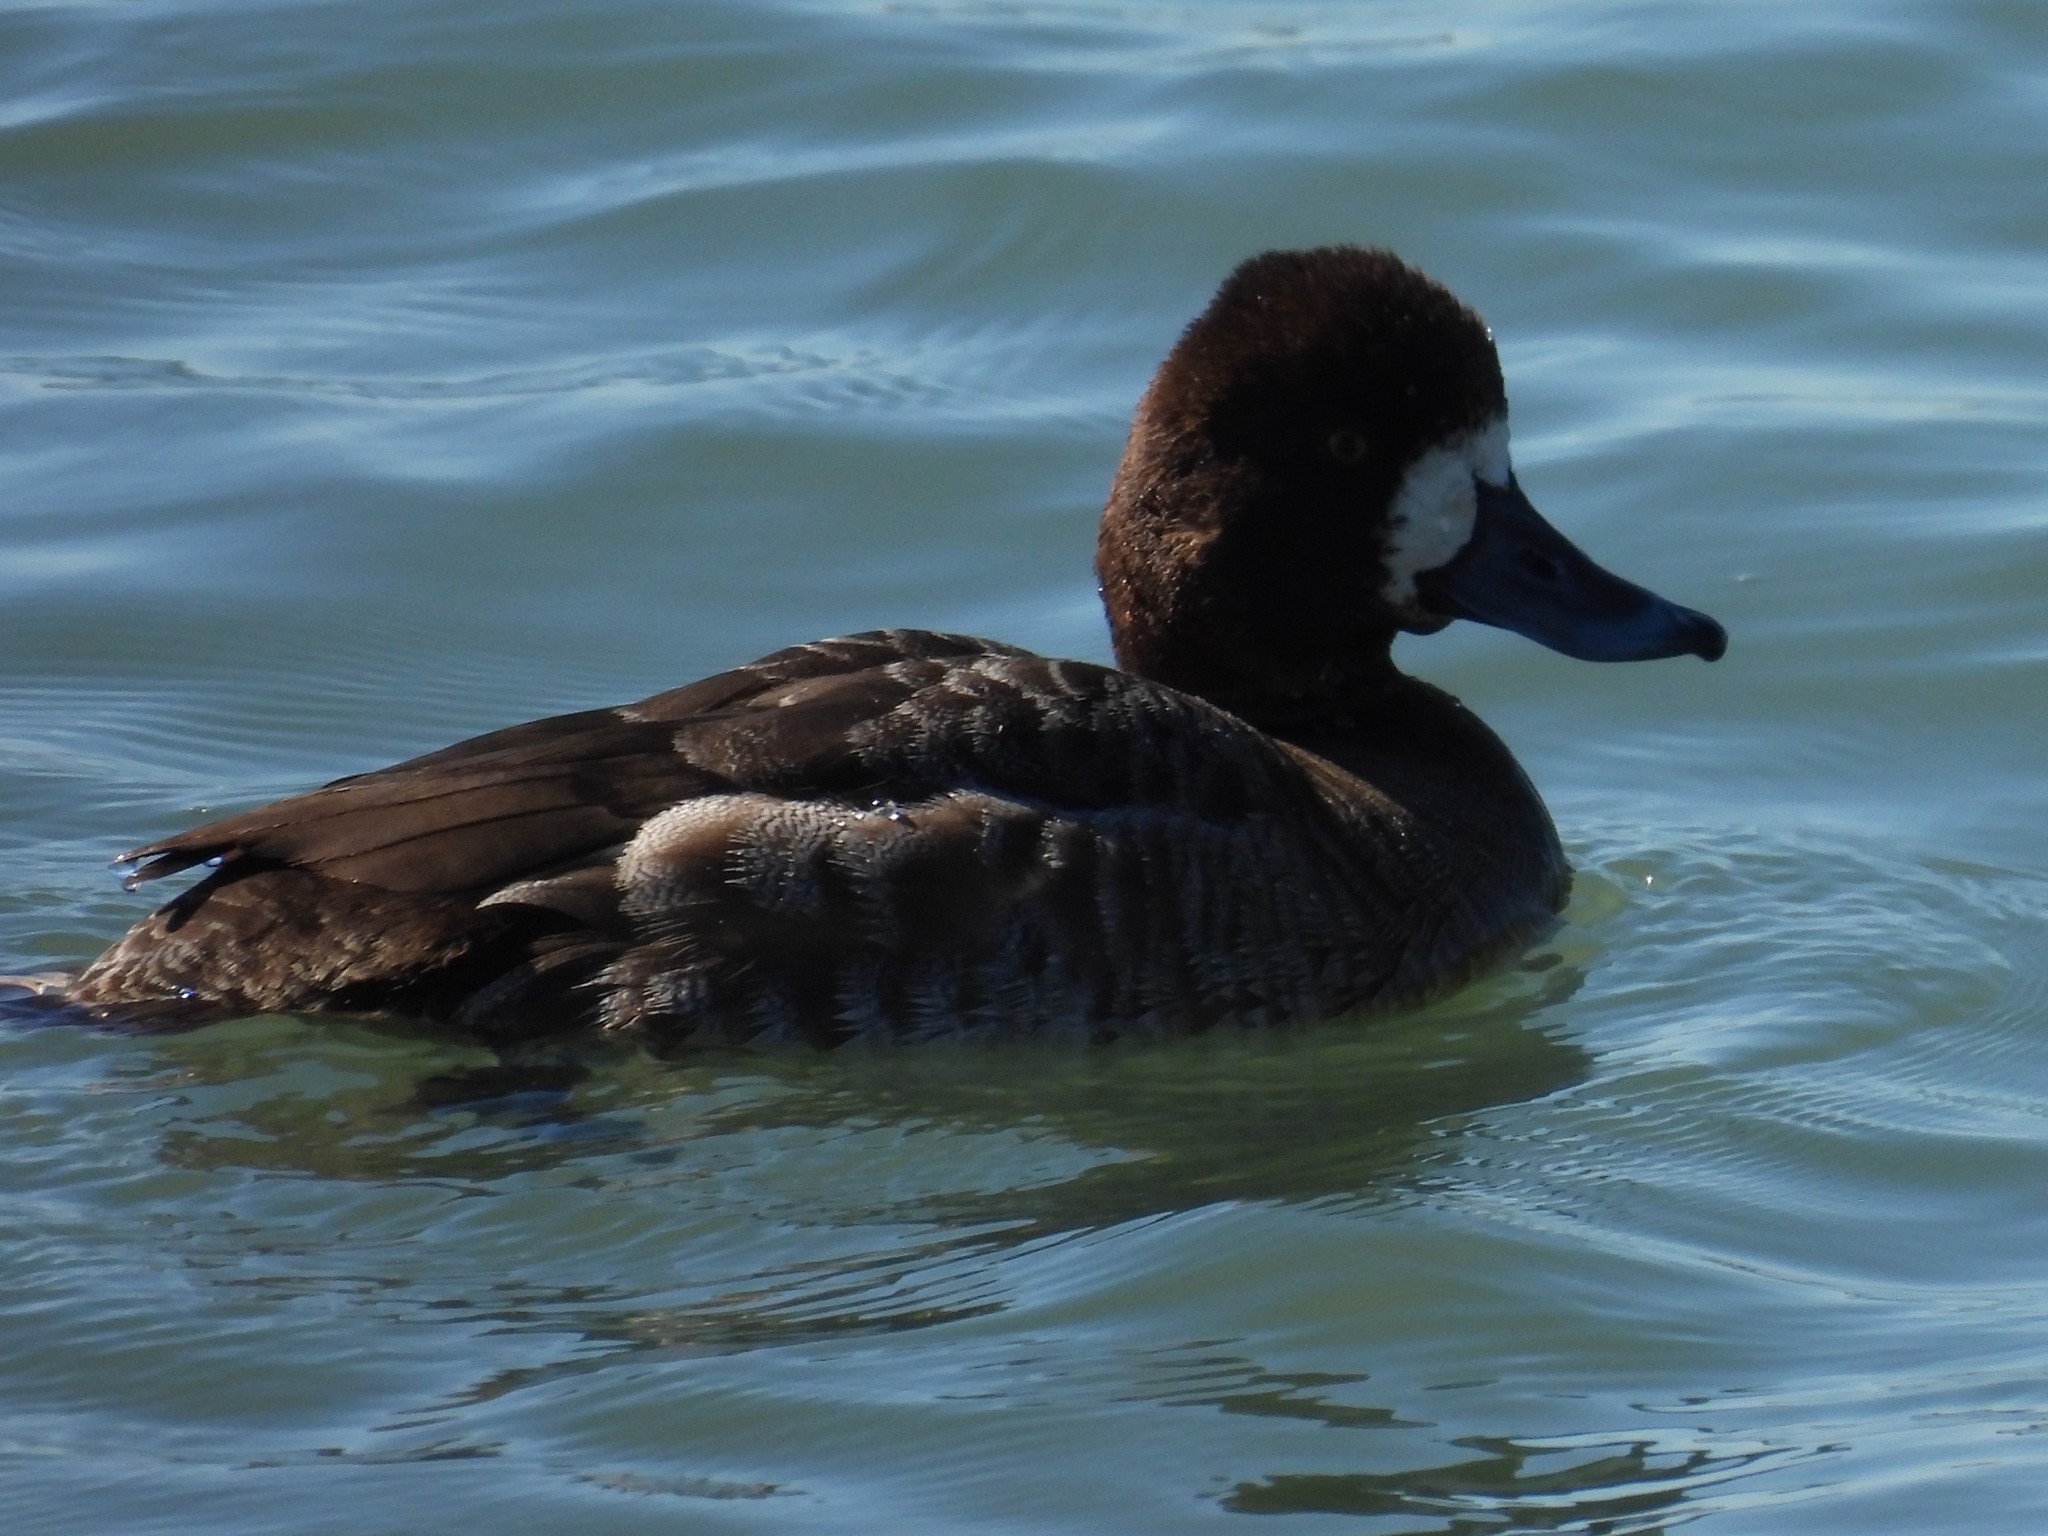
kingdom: Animalia
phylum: Chordata
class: Aves
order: Anseriformes
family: Anatidae
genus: Aythya
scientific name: Aythya marila
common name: Greater scaup
